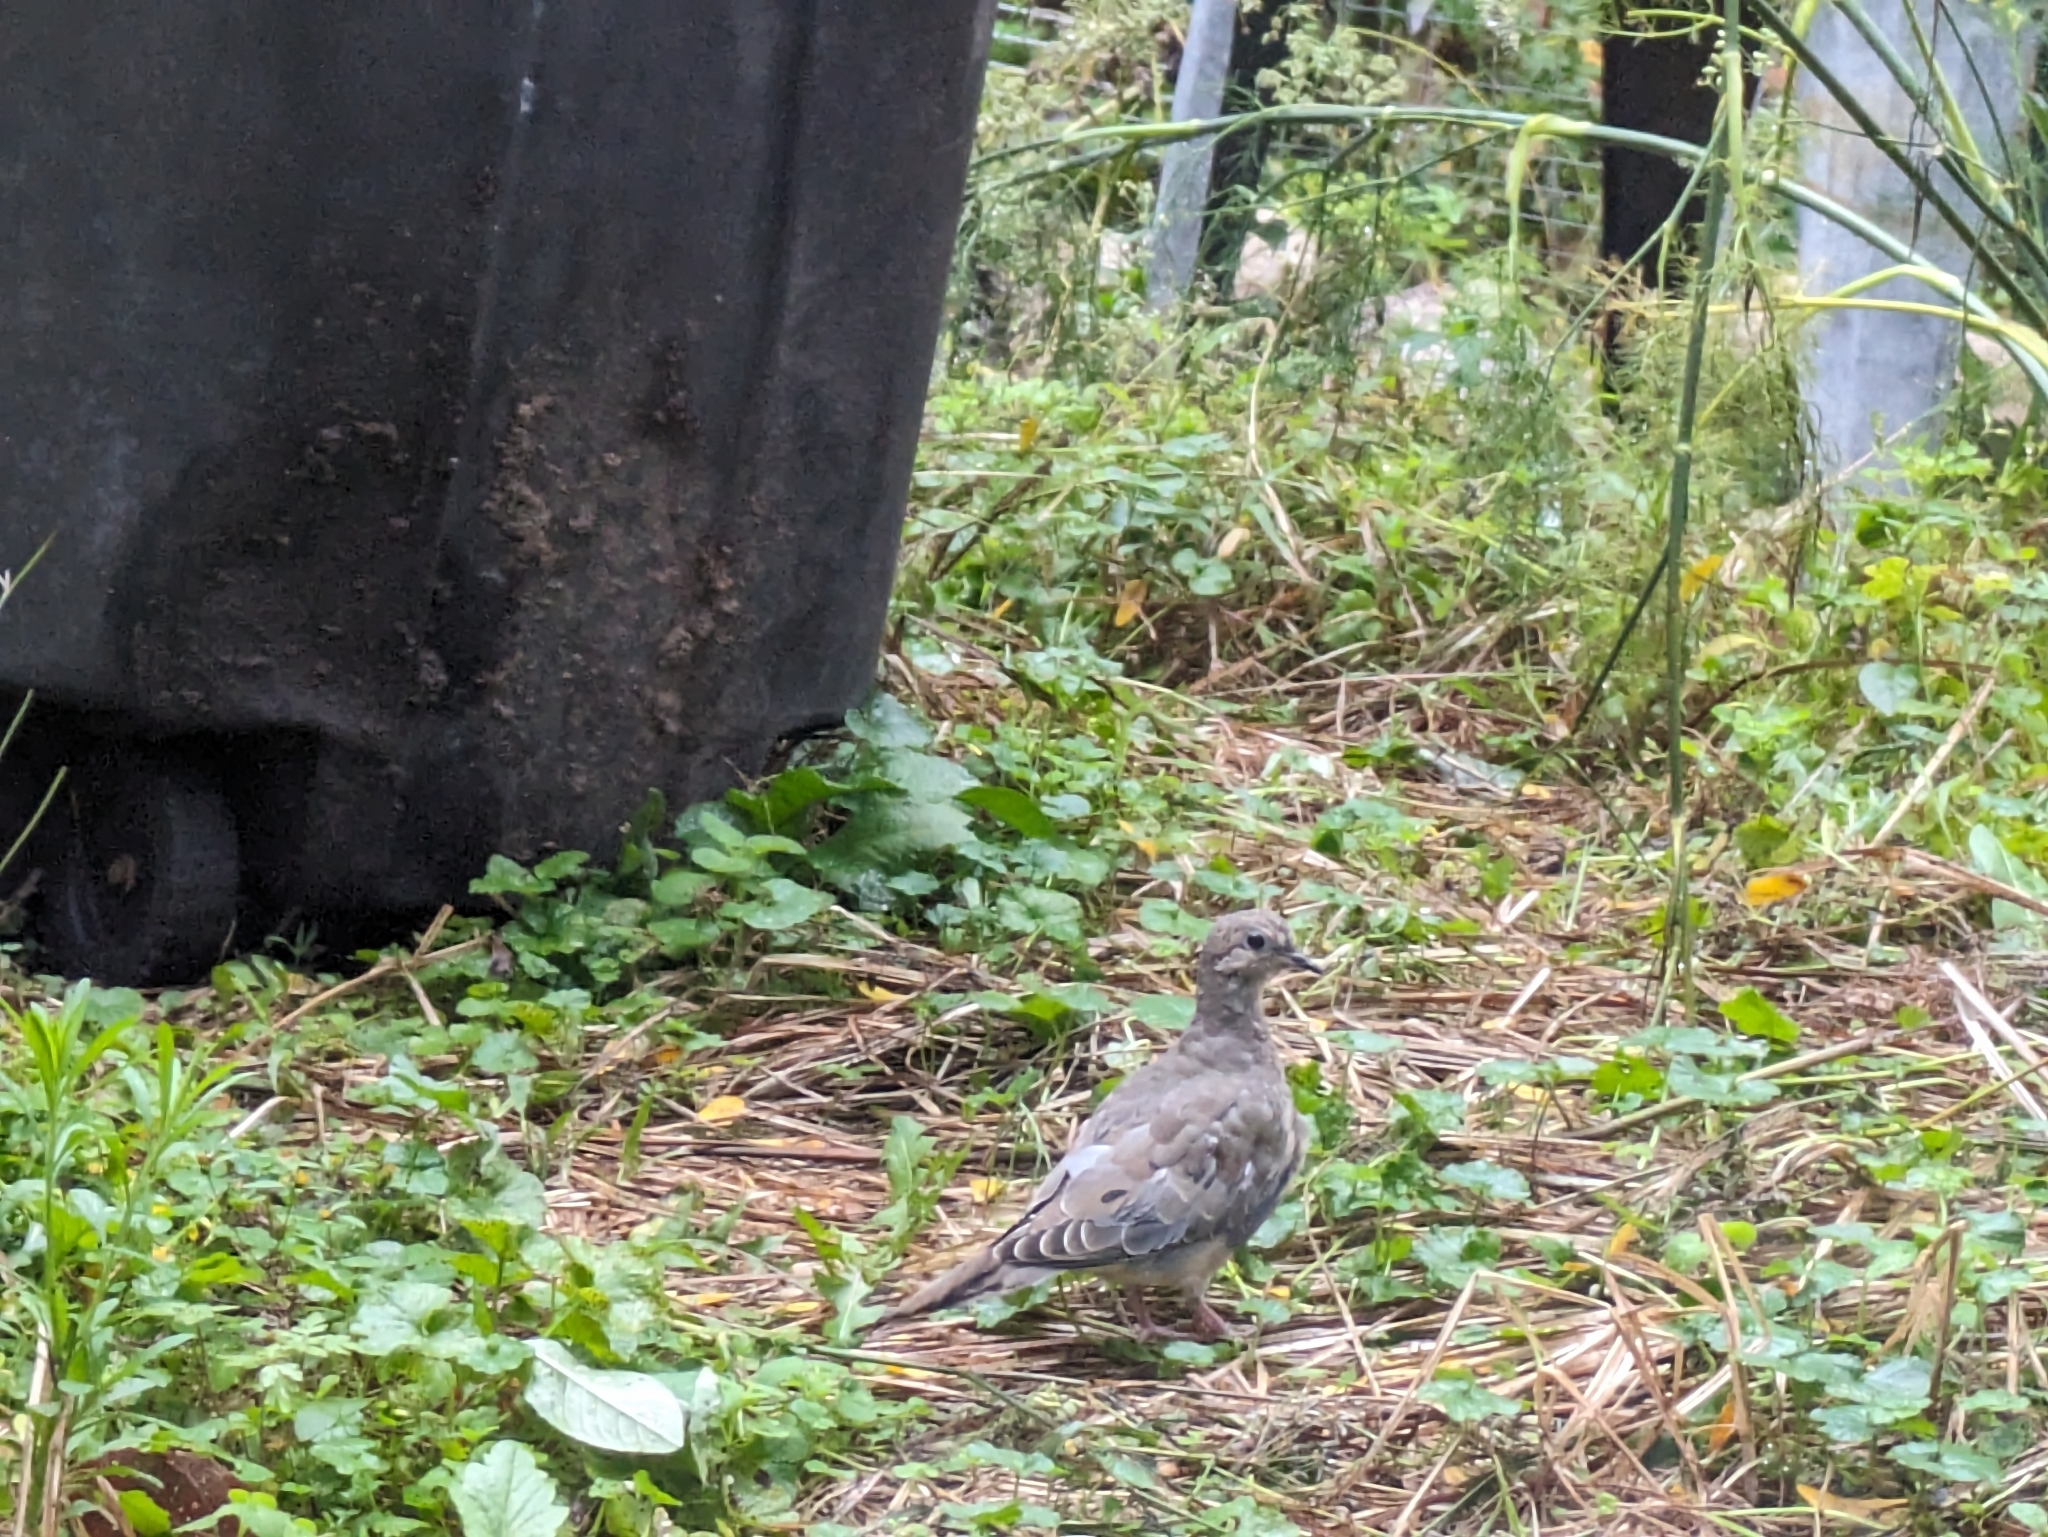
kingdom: Animalia
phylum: Chordata
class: Aves
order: Columbiformes
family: Columbidae
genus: Zenaida
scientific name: Zenaida macroura
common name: Mourning dove
